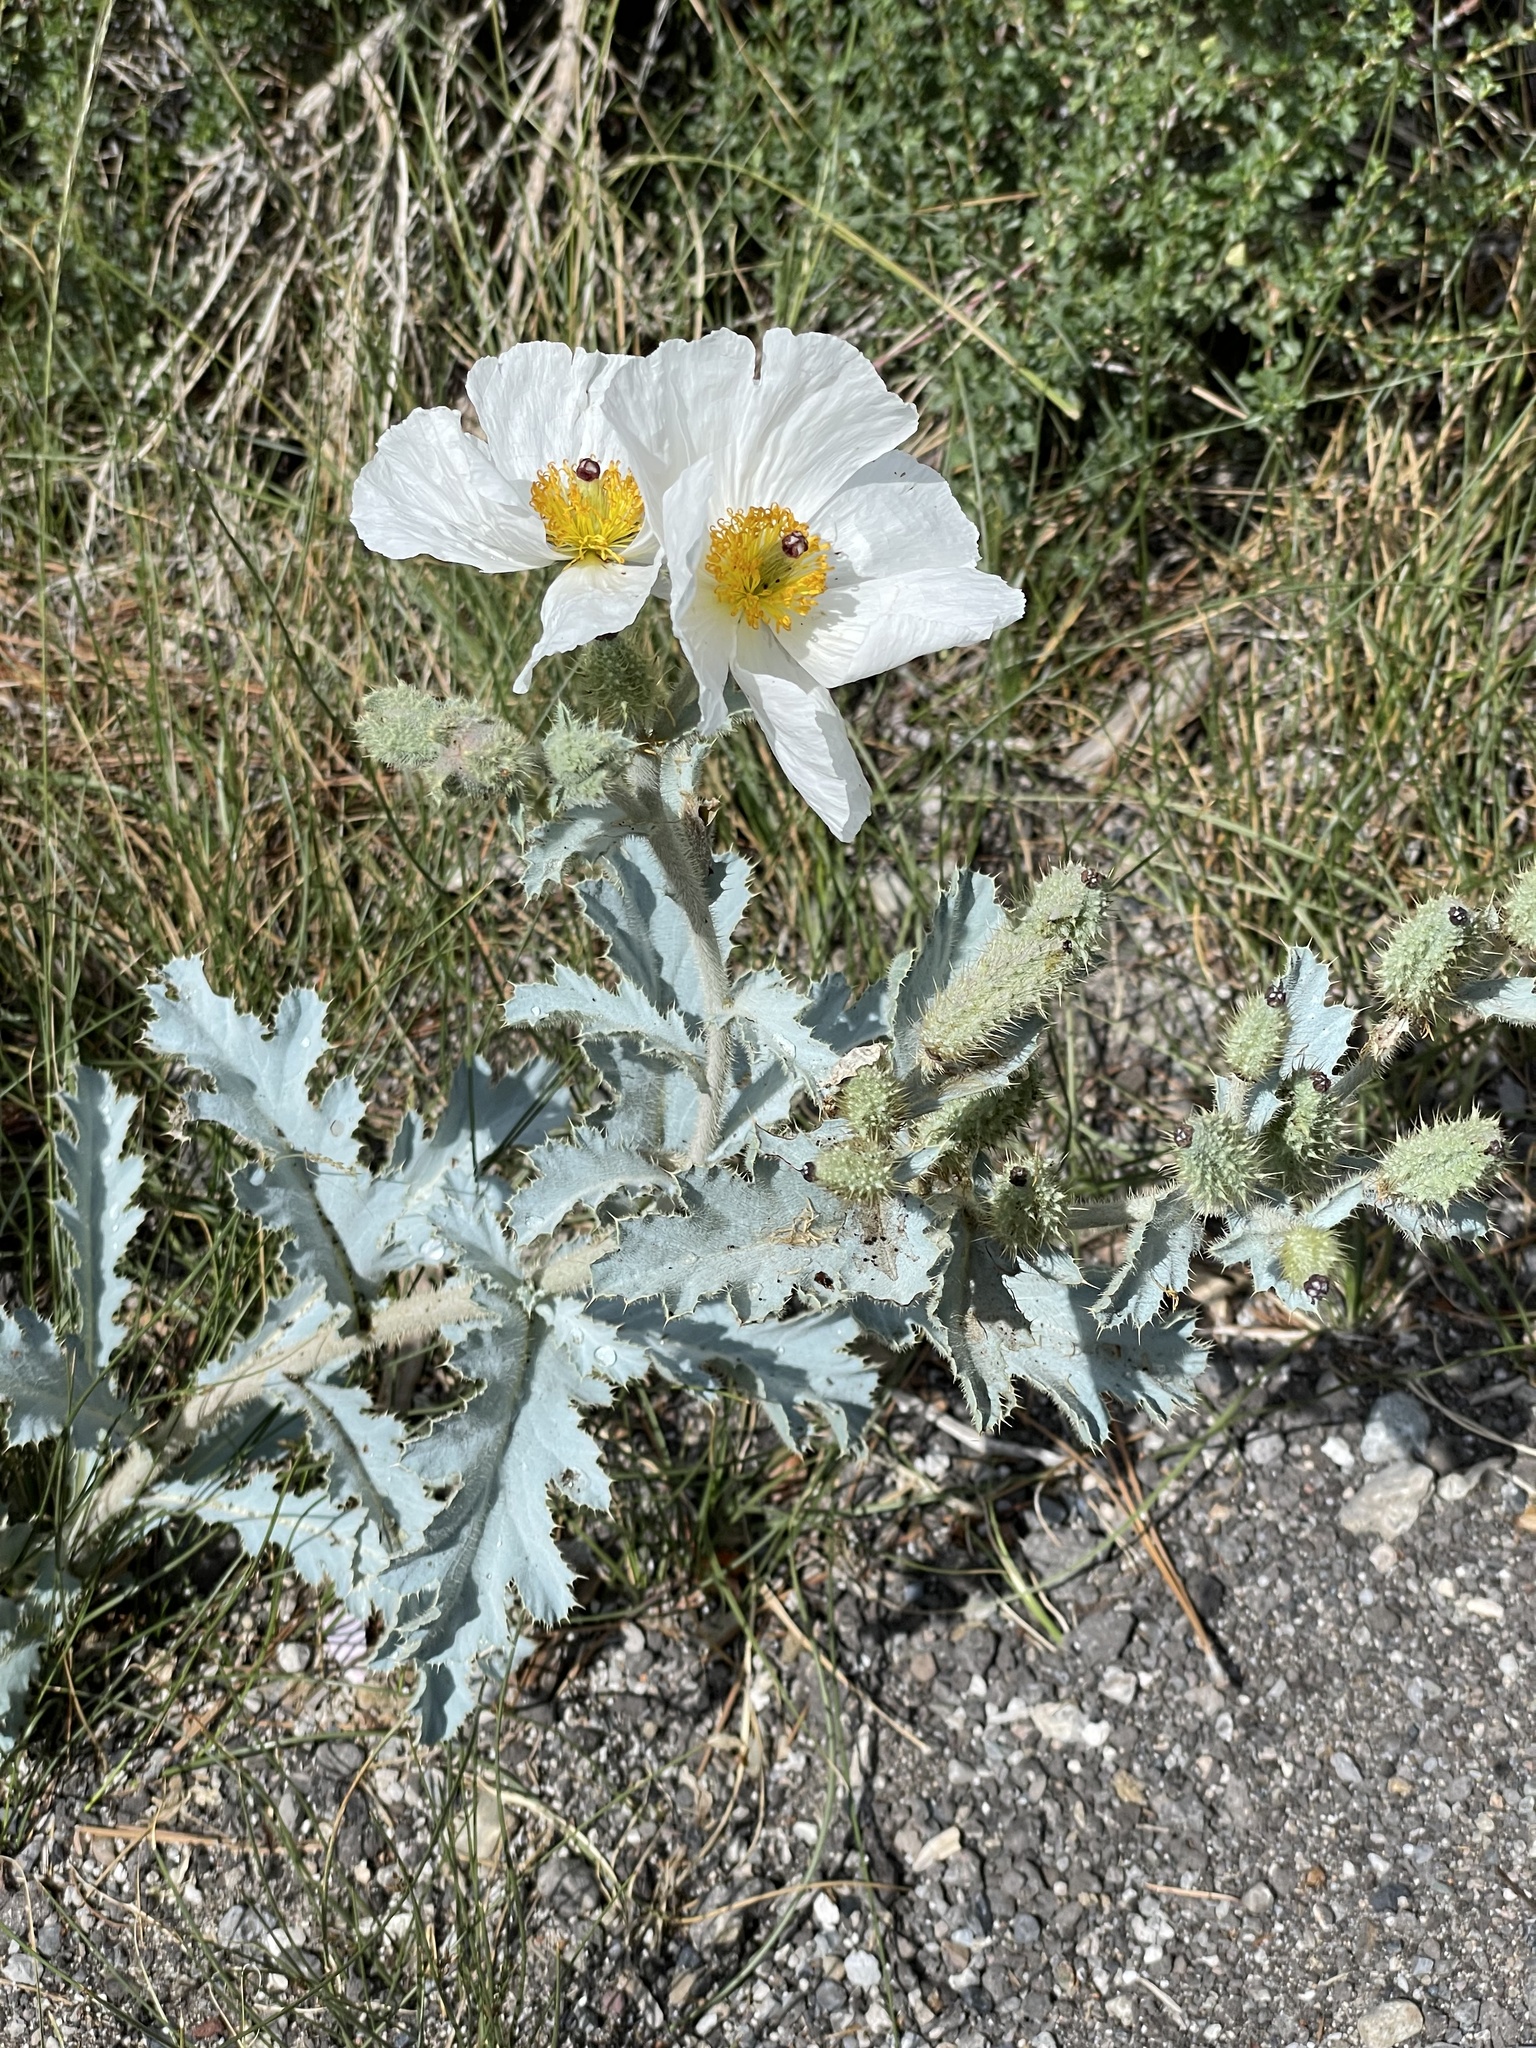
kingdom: Plantae
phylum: Tracheophyta
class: Magnoliopsida
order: Ranunculales
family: Papaveraceae
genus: Argemone
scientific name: Argemone munita
